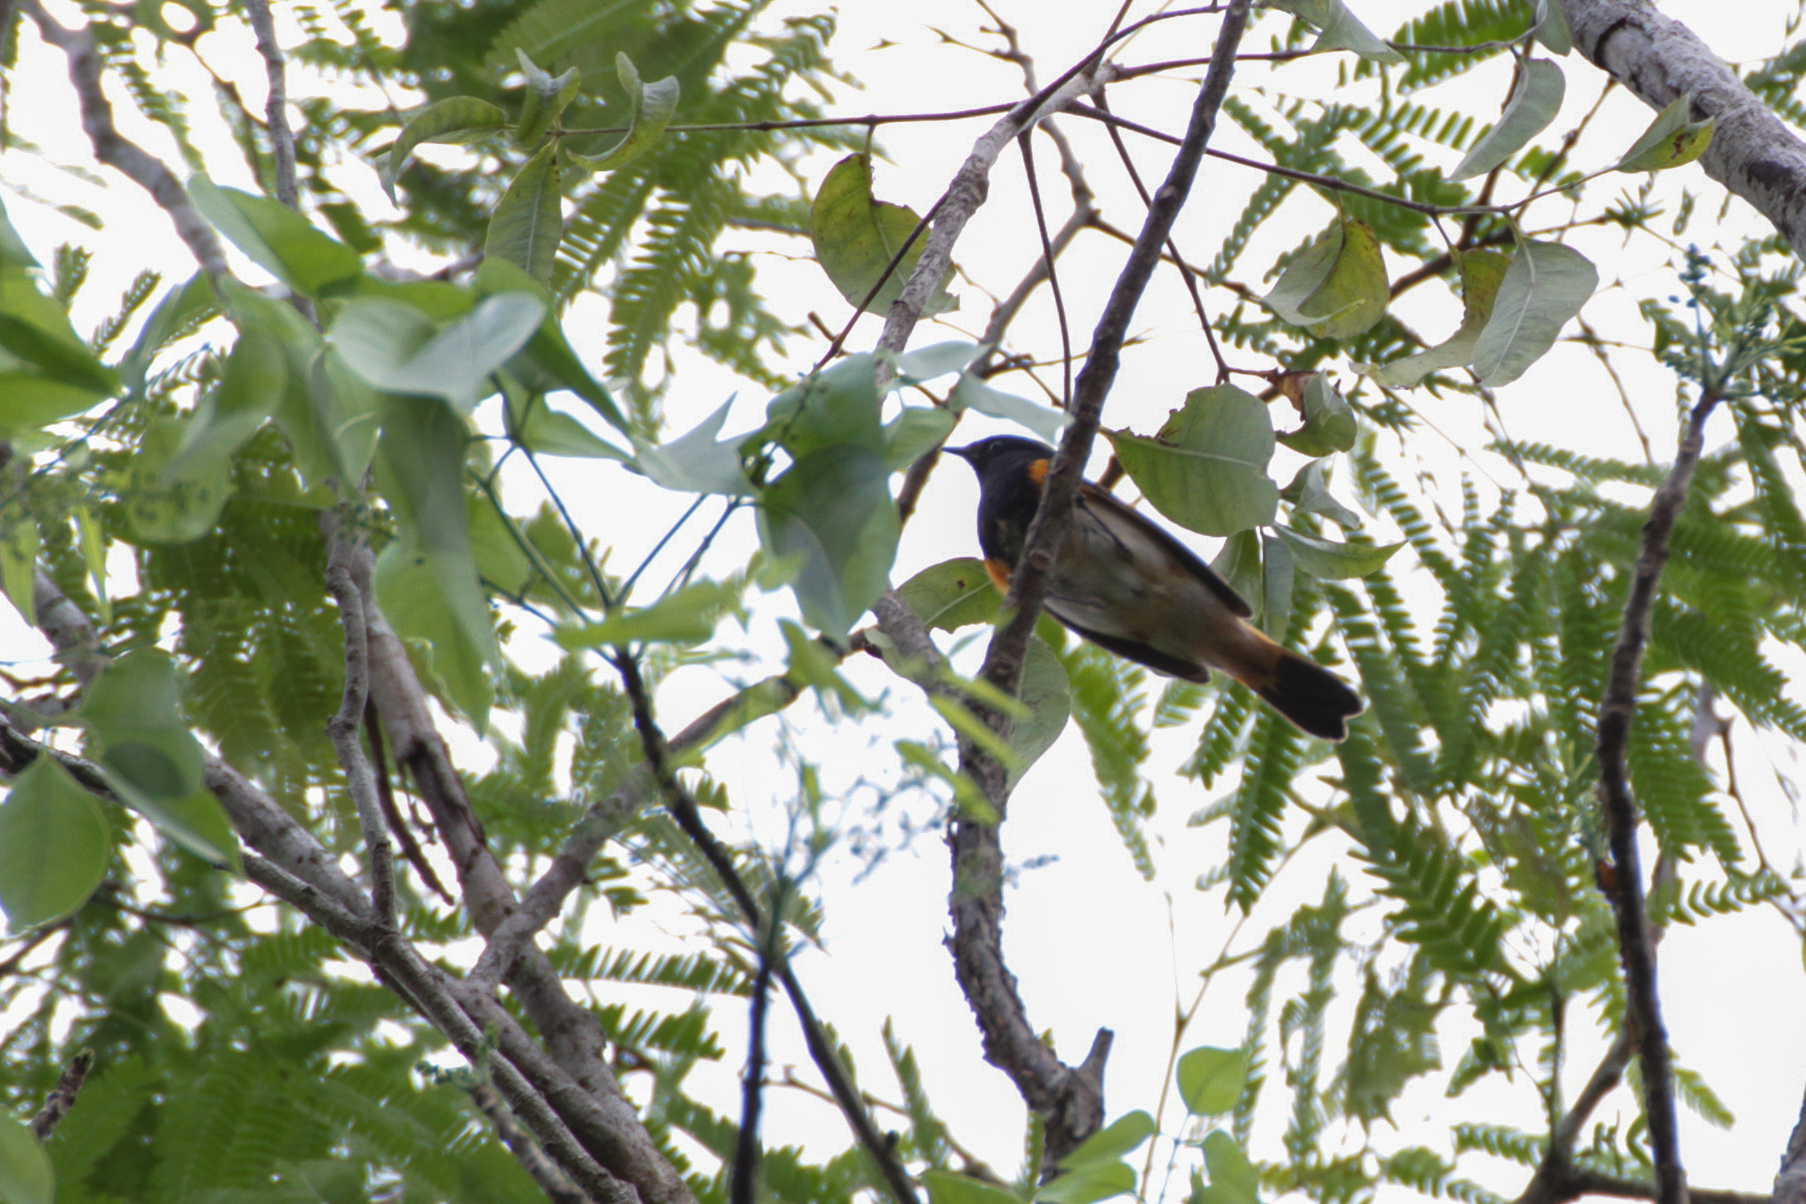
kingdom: Animalia
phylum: Chordata
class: Aves
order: Passeriformes
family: Parulidae
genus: Setophaga
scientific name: Setophaga ruticilla
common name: American redstart
